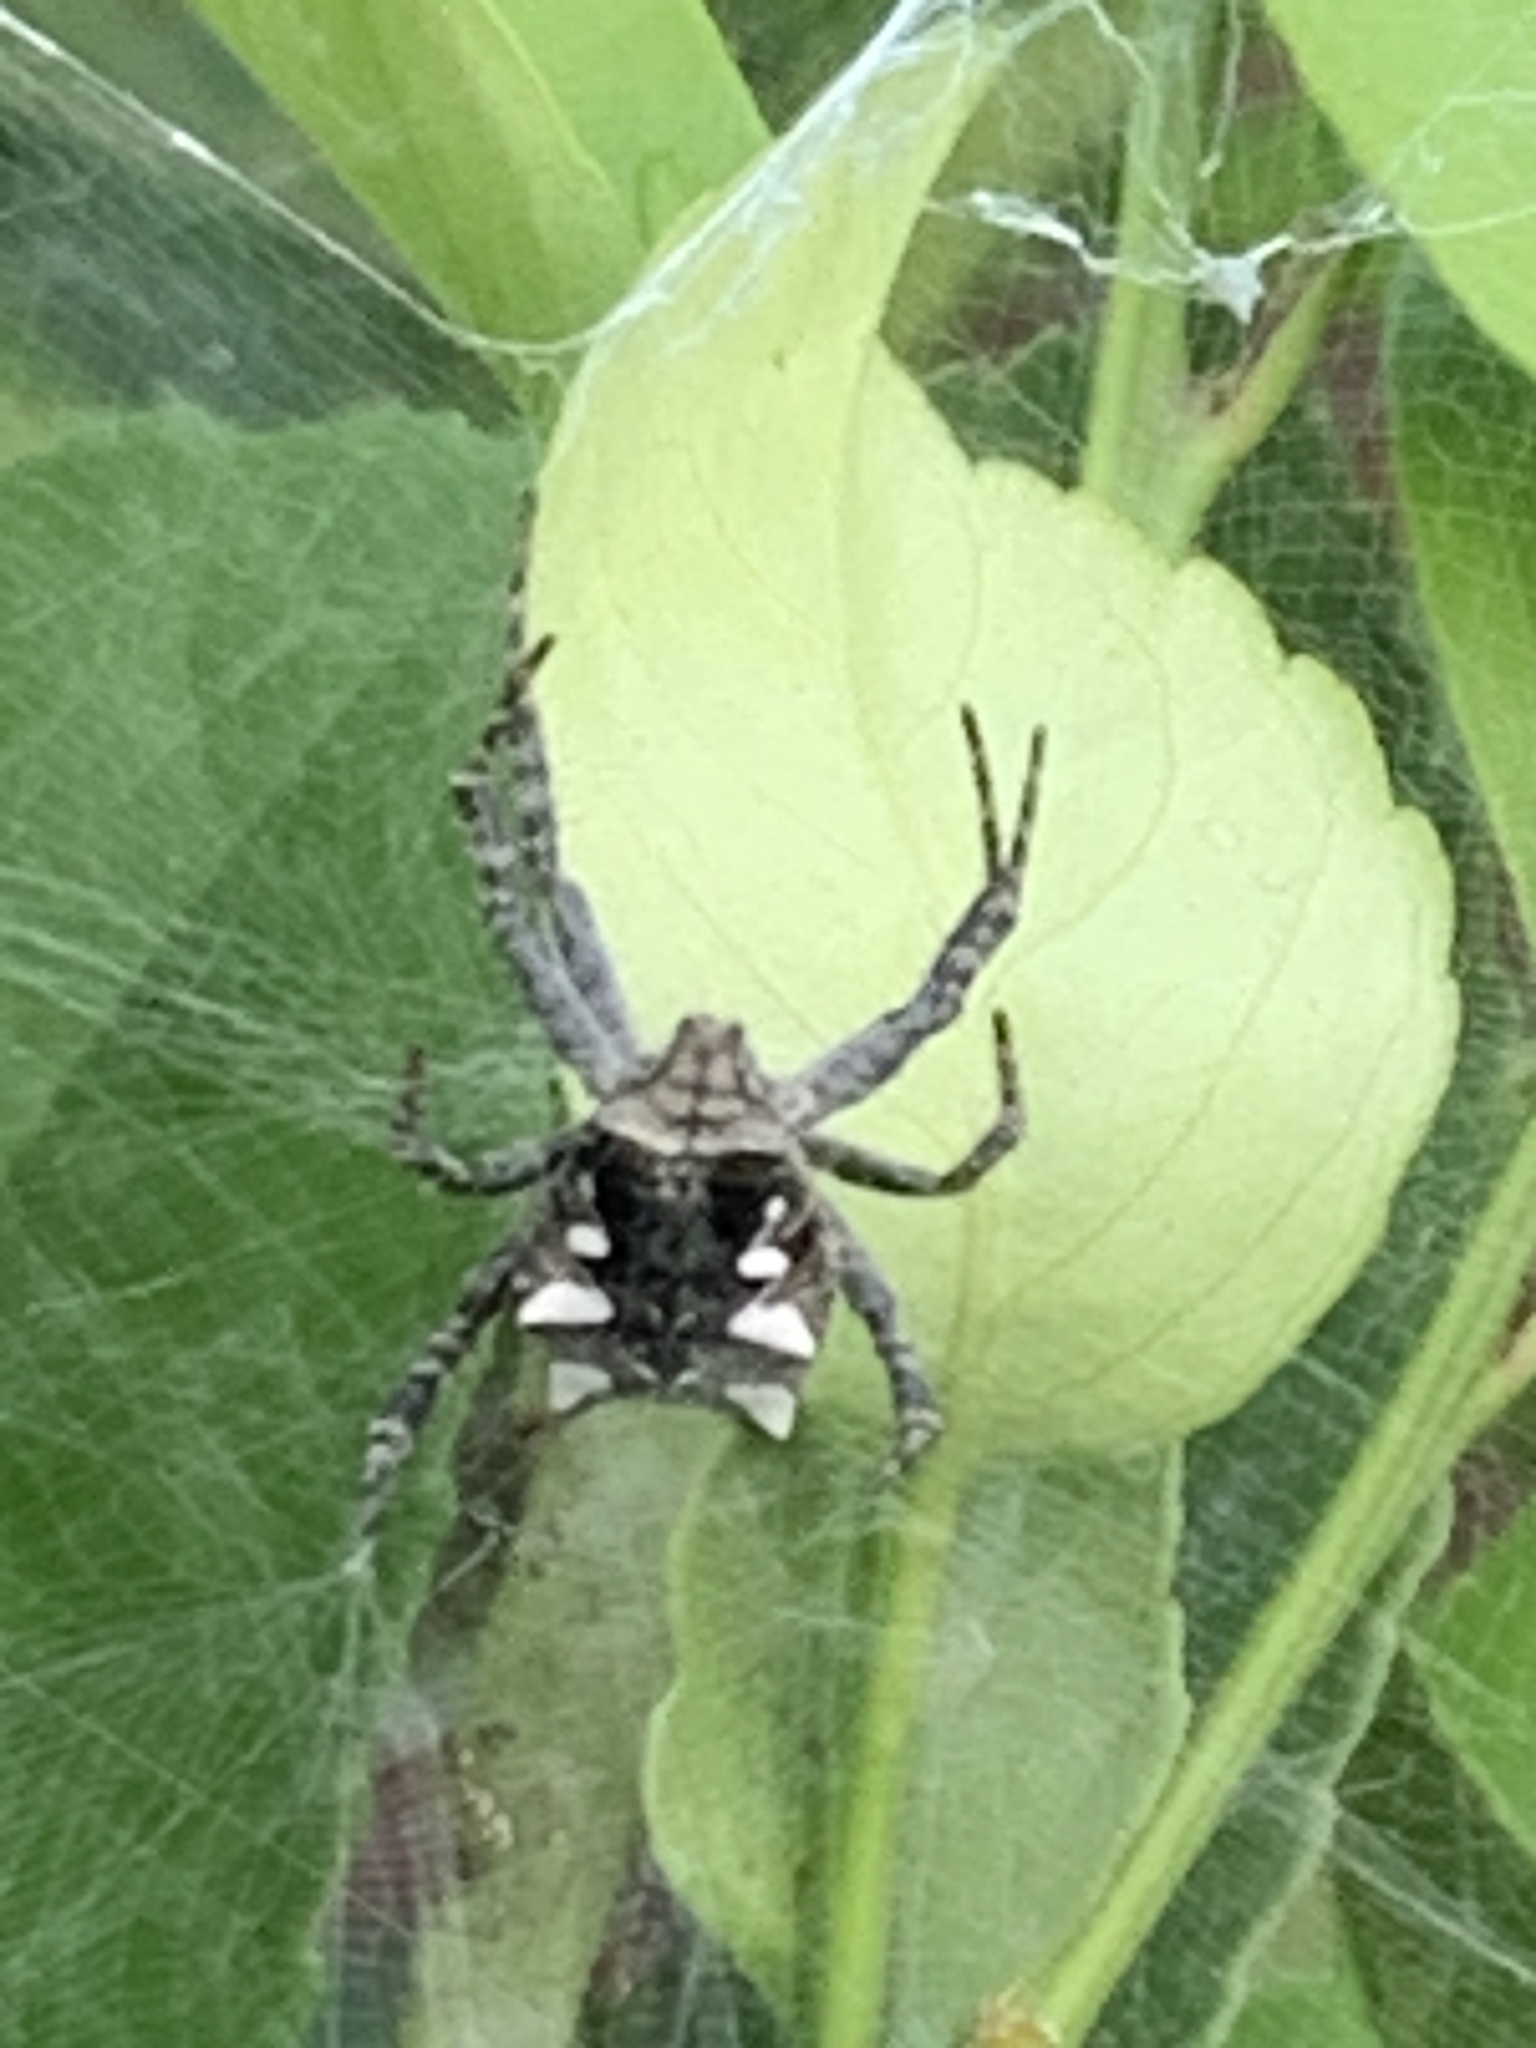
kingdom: Animalia
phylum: Arthropoda
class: Arachnida
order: Araneae
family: Araneidae
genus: Cyrtophora
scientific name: Cyrtophora citricola
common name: Orb weavers
